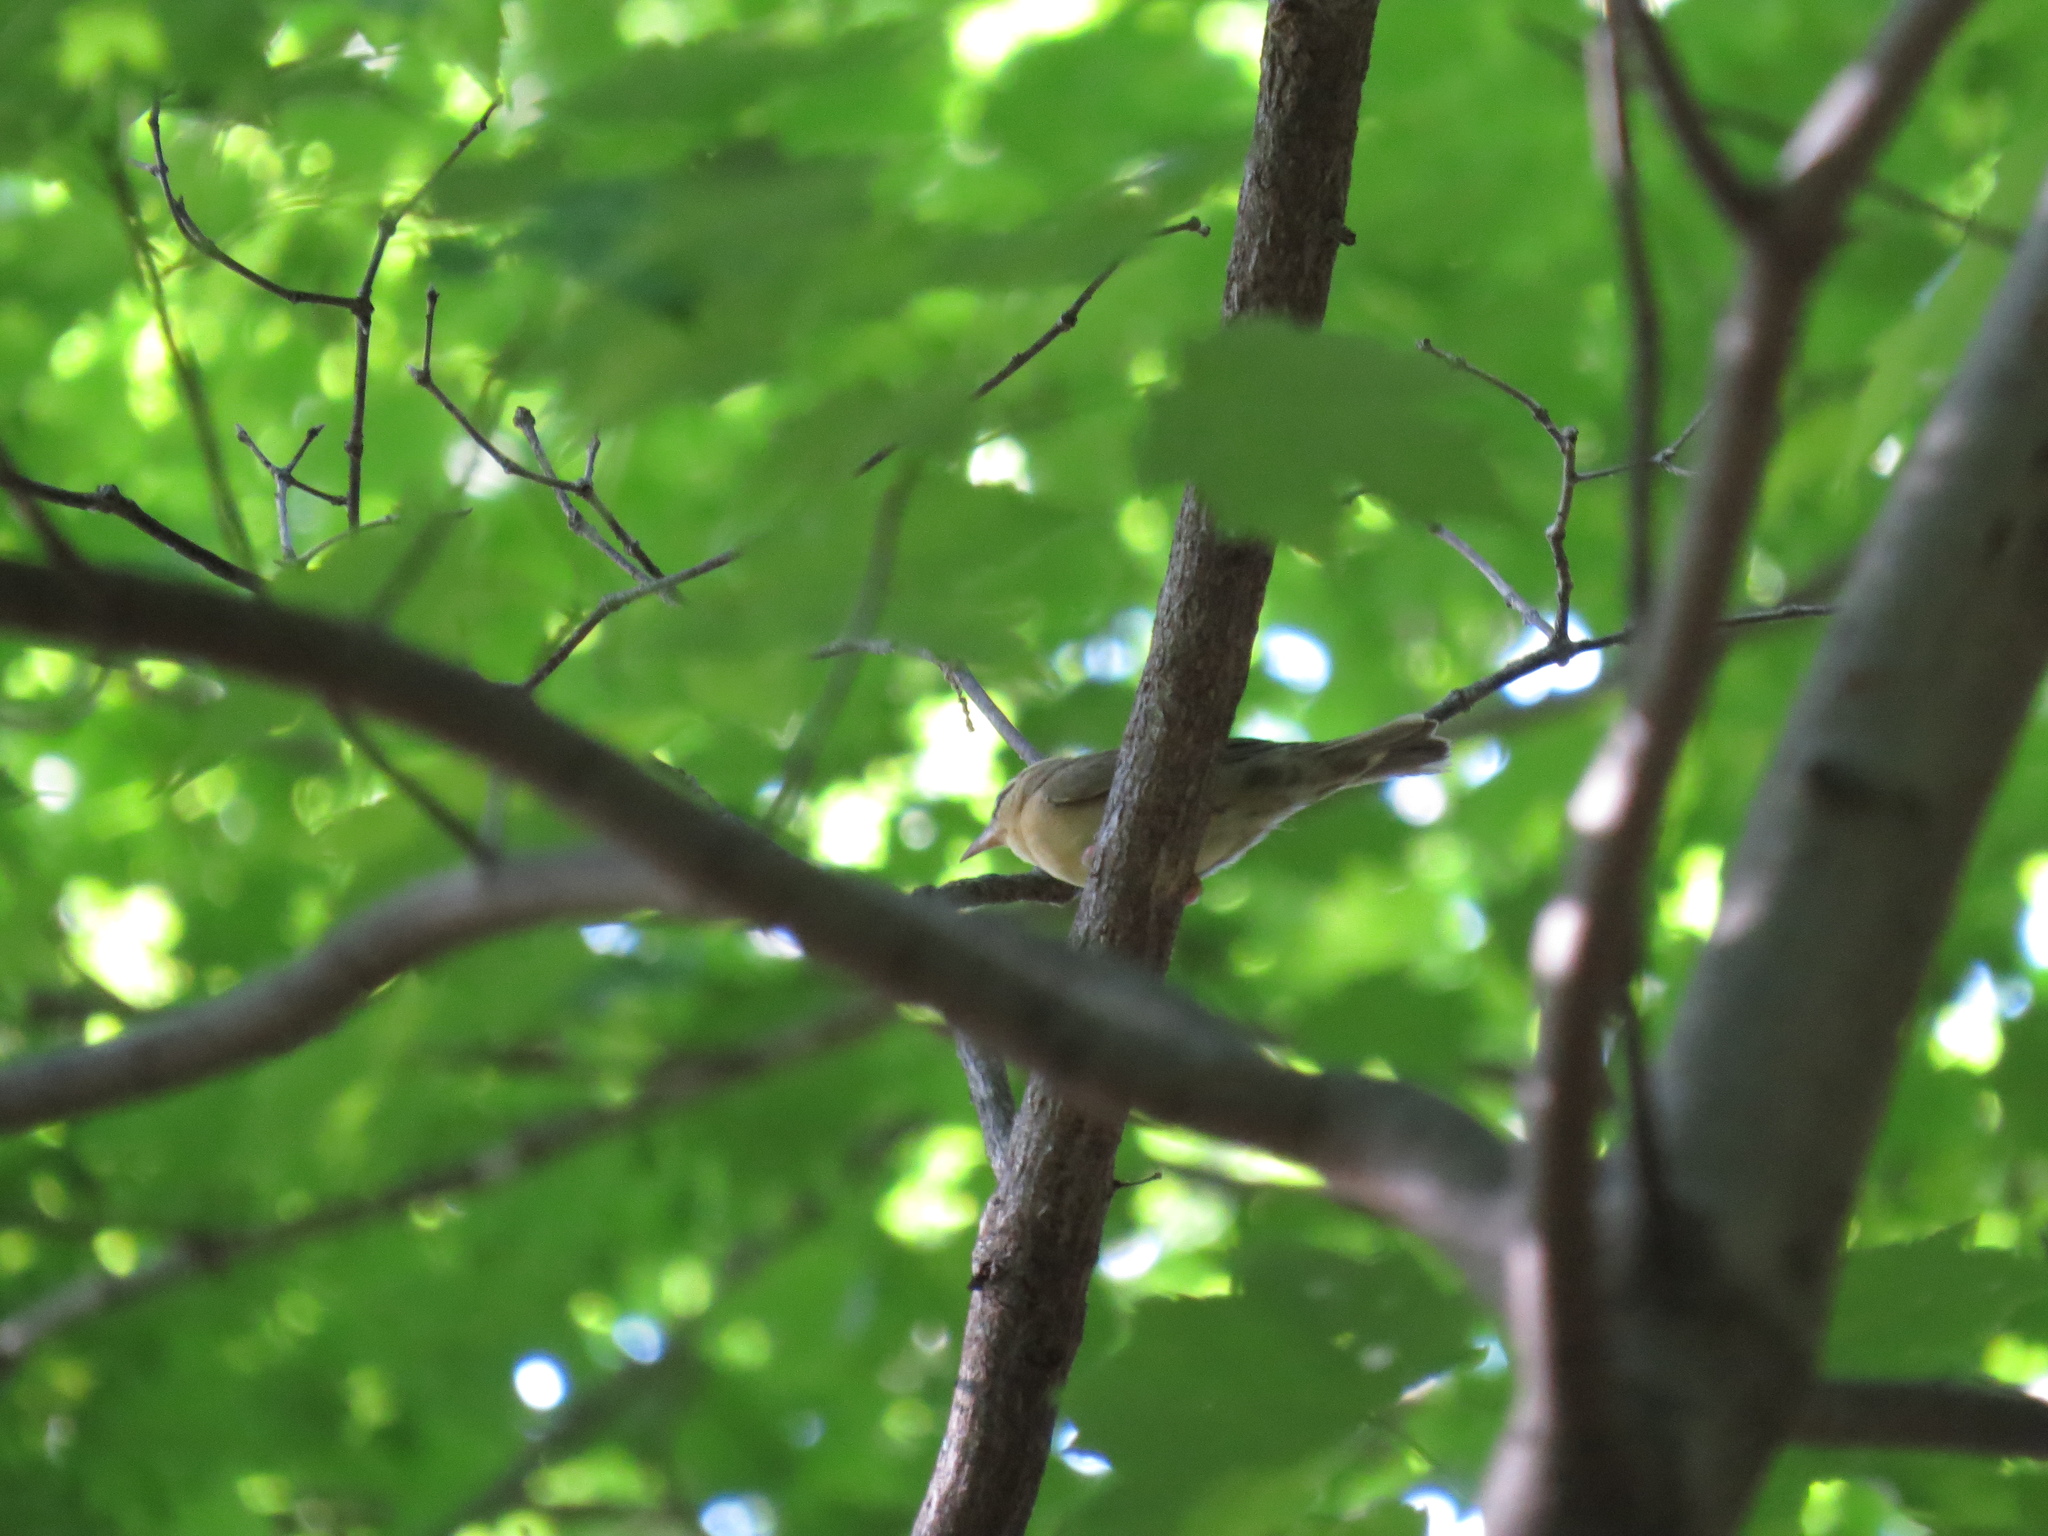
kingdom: Animalia
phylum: Chordata
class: Aves
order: Passeriformes
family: Parulidae
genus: Helmitheros
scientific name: Helmitheros vermivorum
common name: Worm-eating warbler
